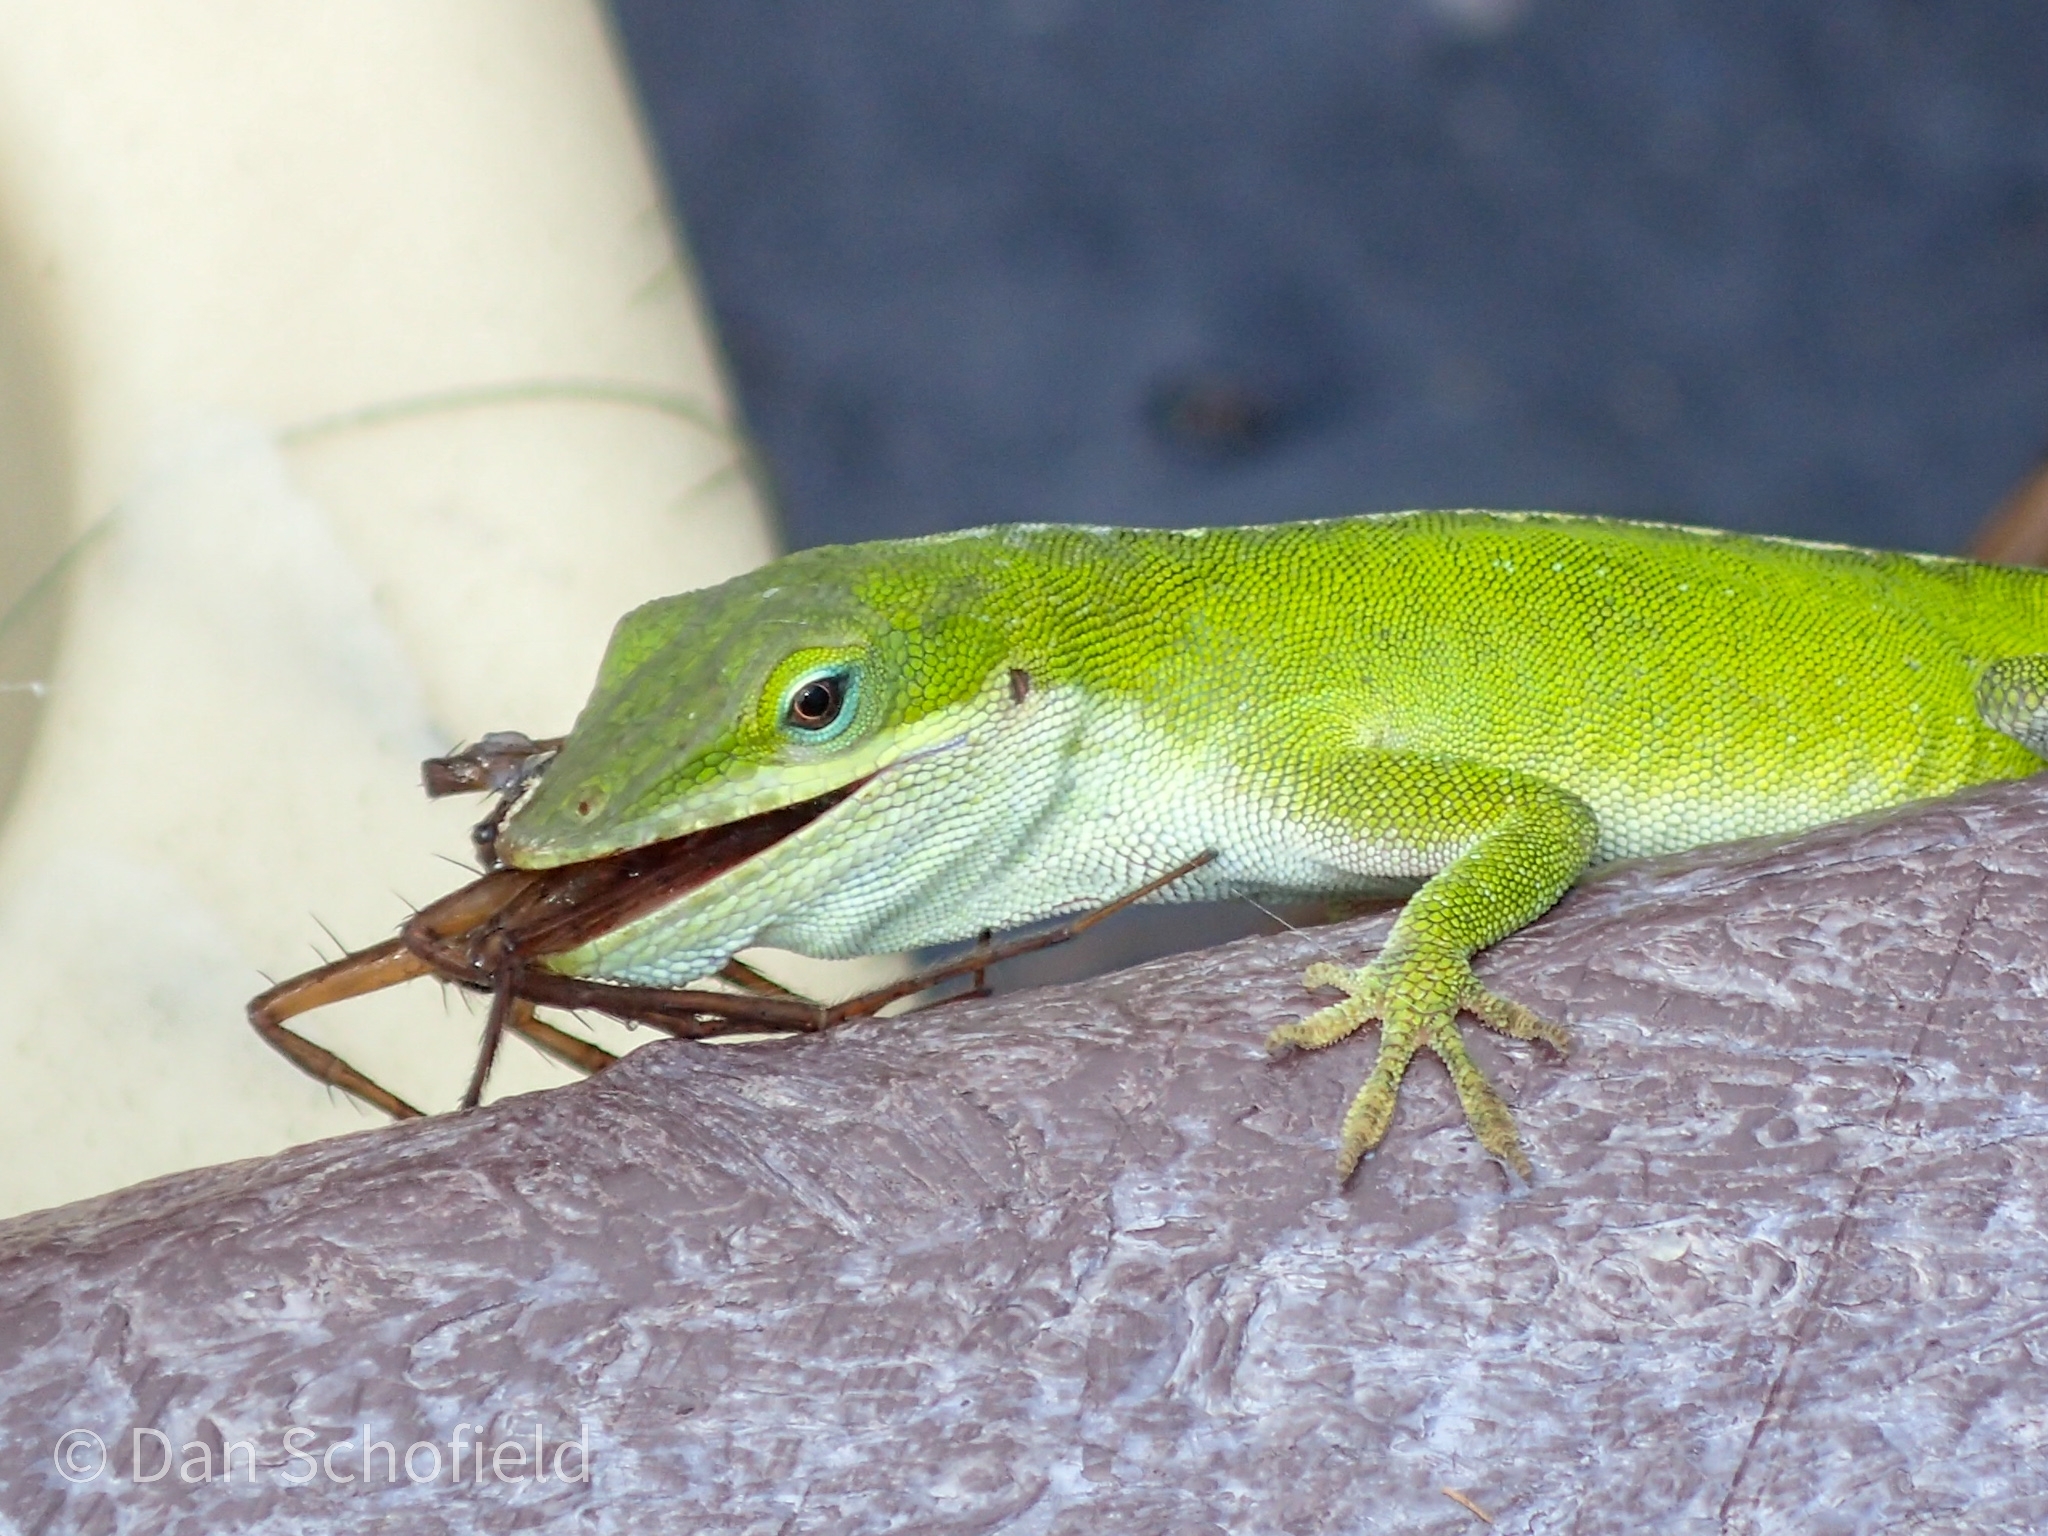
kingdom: Animalia
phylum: Chordata
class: Squamata
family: Dactyloidae
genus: Anolis
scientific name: Anolis carolinensis
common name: Green anole
